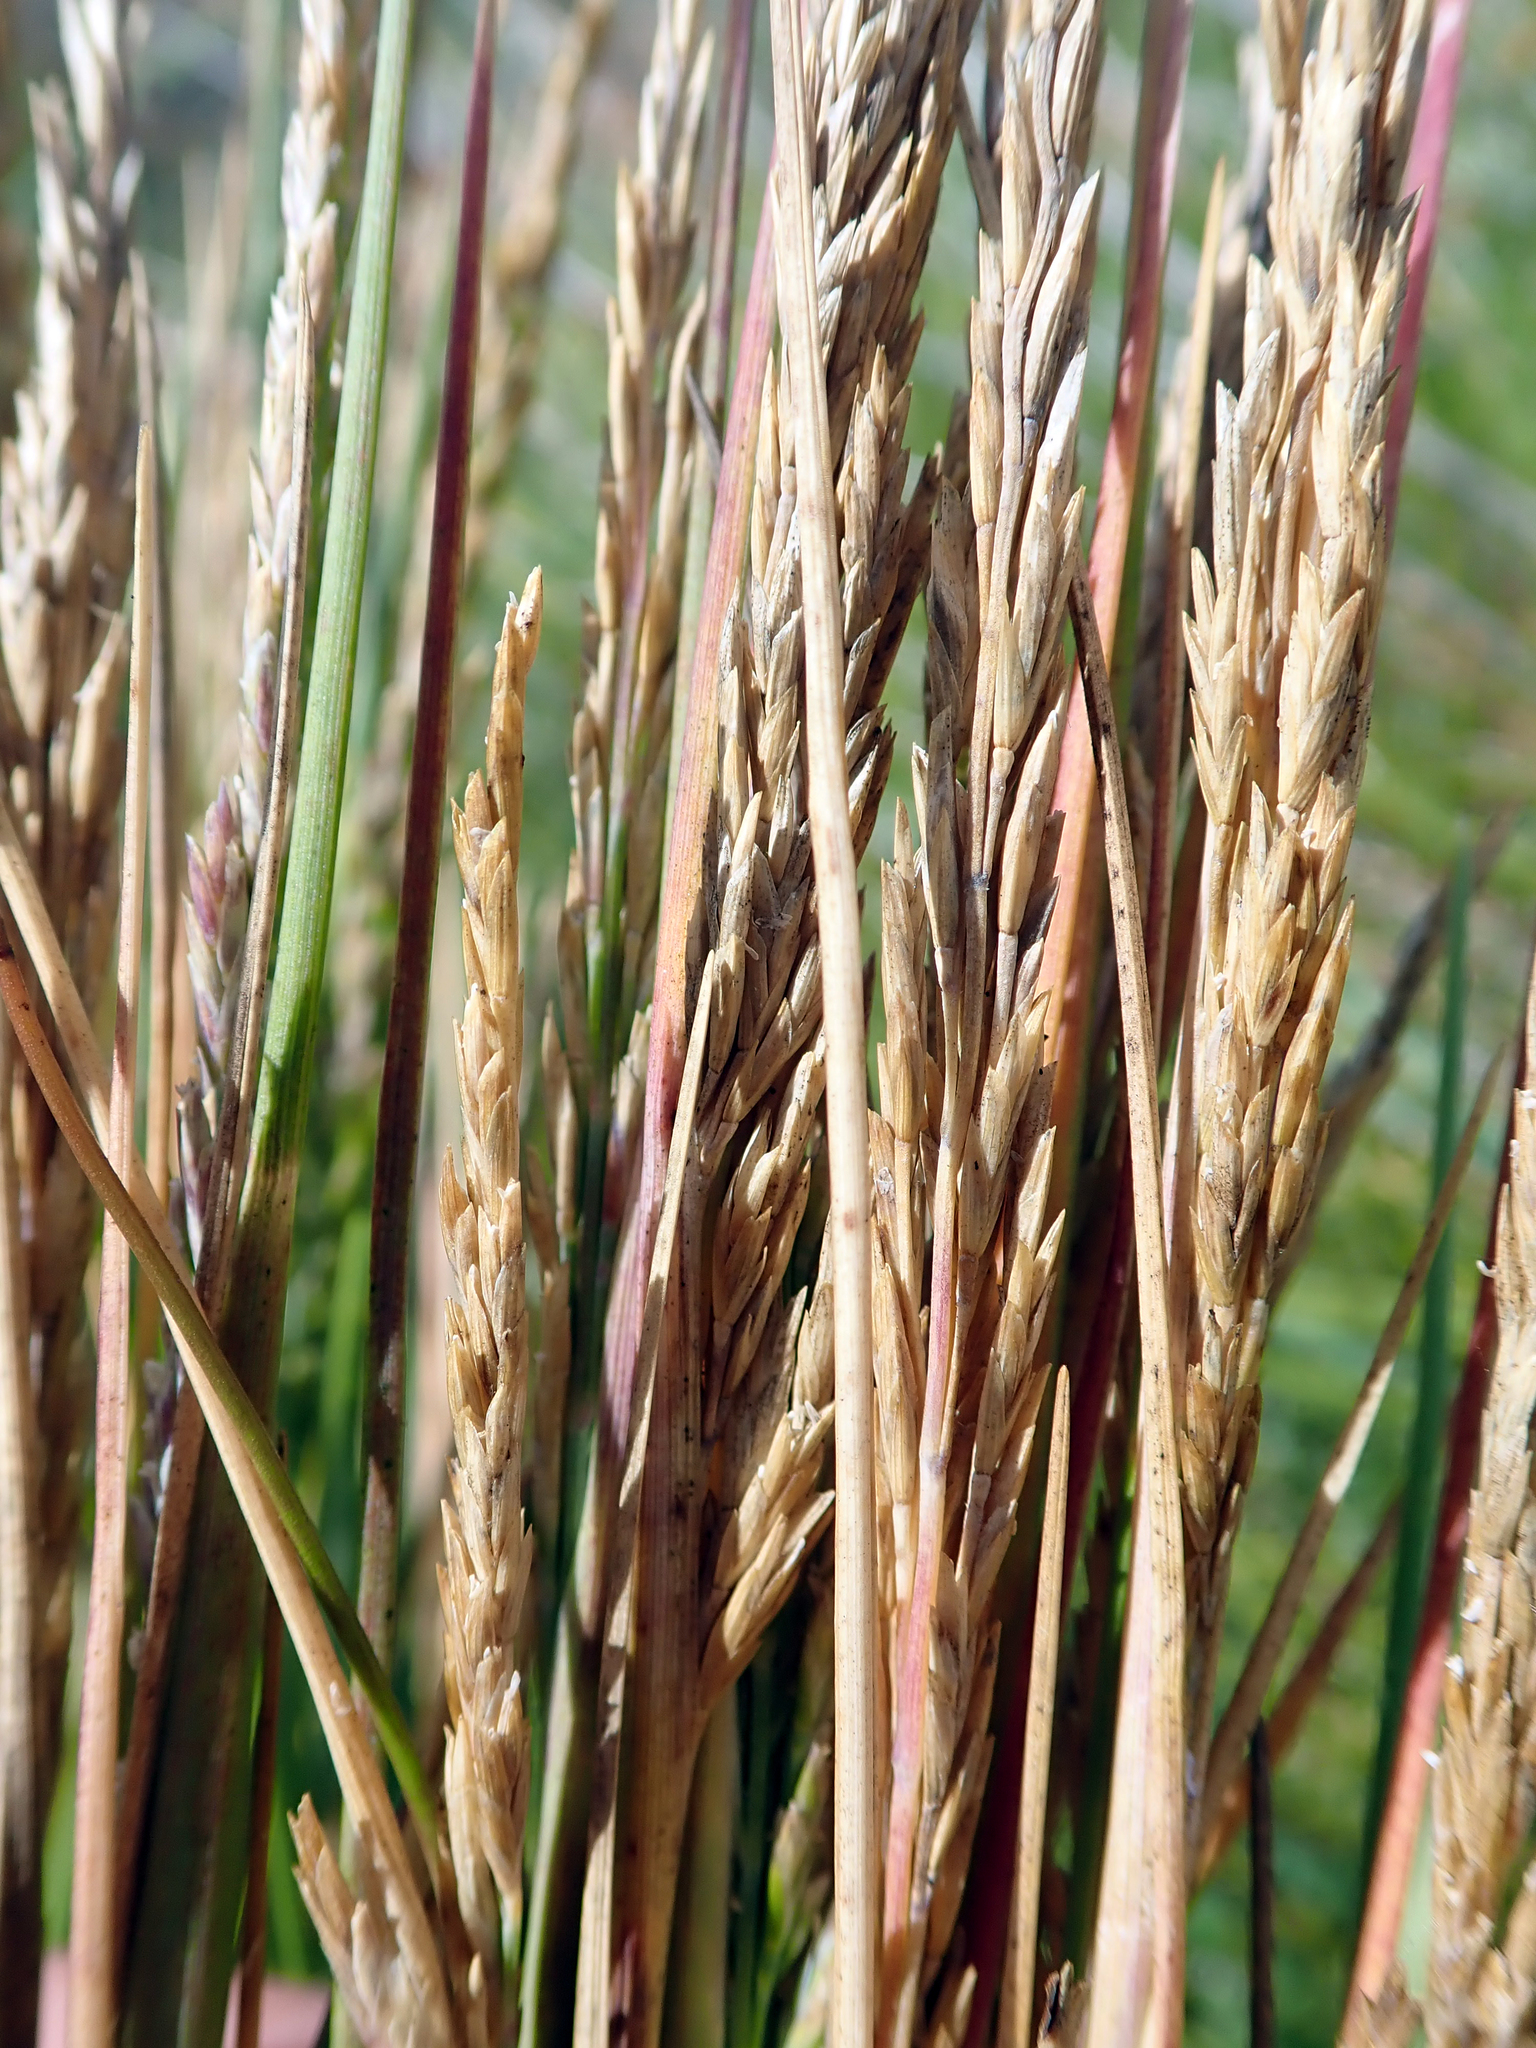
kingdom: Plantae
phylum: Tracheophyta
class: Liliopsida
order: Poales
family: Poaceae
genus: Puccinellia
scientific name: Puccinellia walkeri
